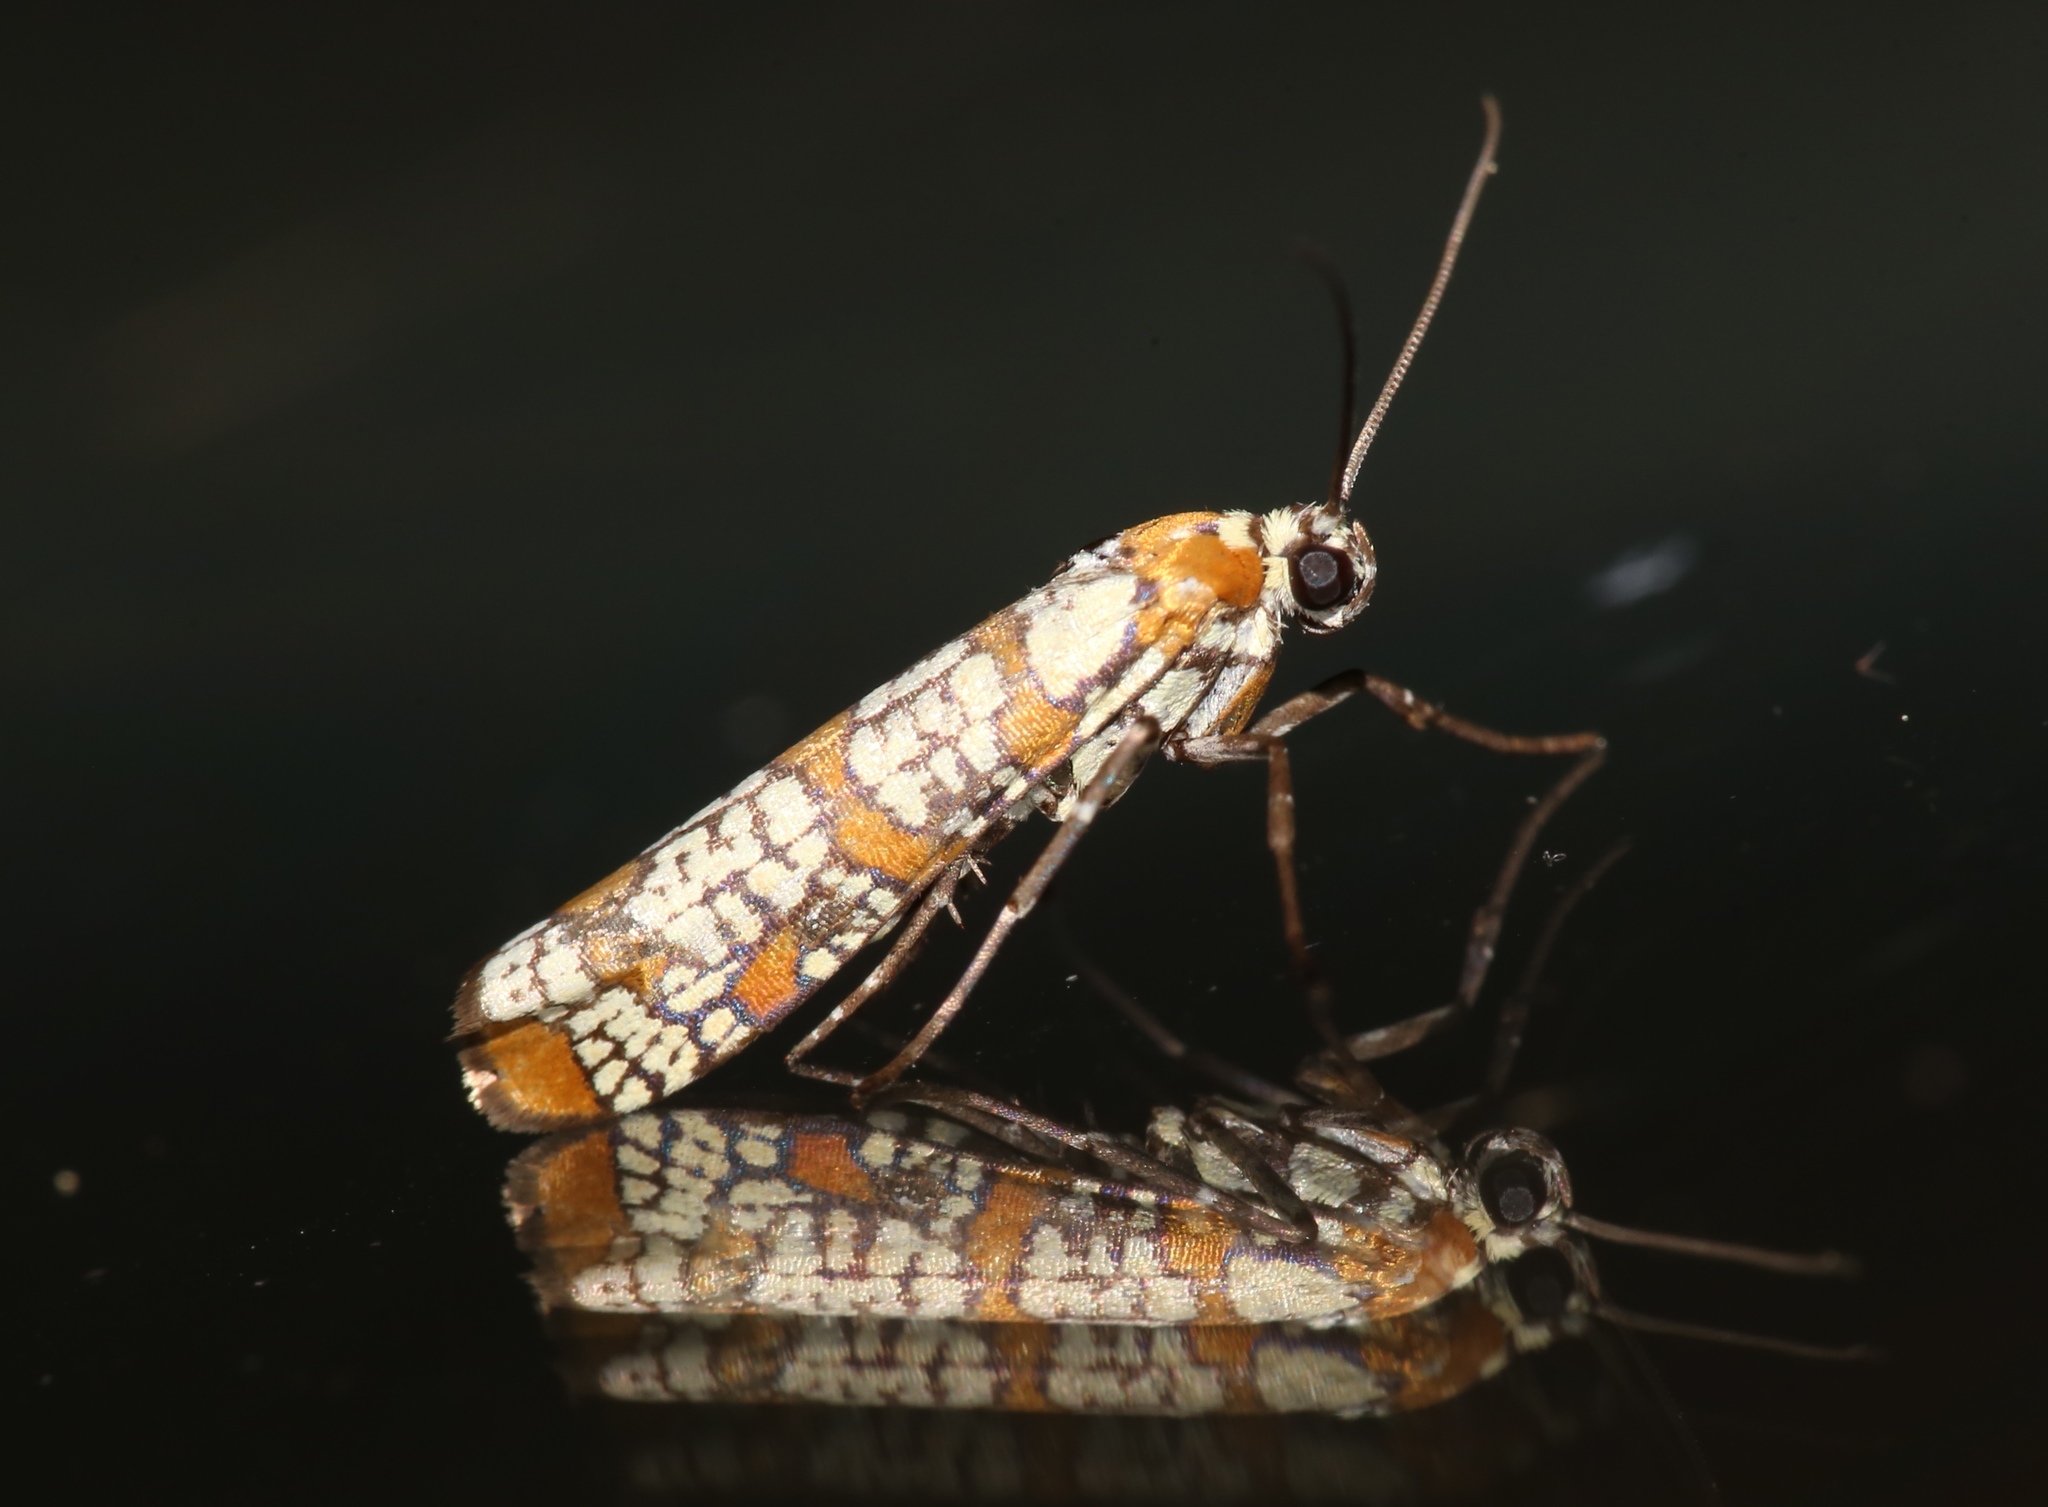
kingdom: Animalia
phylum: Arthropoda
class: Insecta
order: Lepidoptera
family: Attevidae
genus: Atteva
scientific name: Atteva punctella
